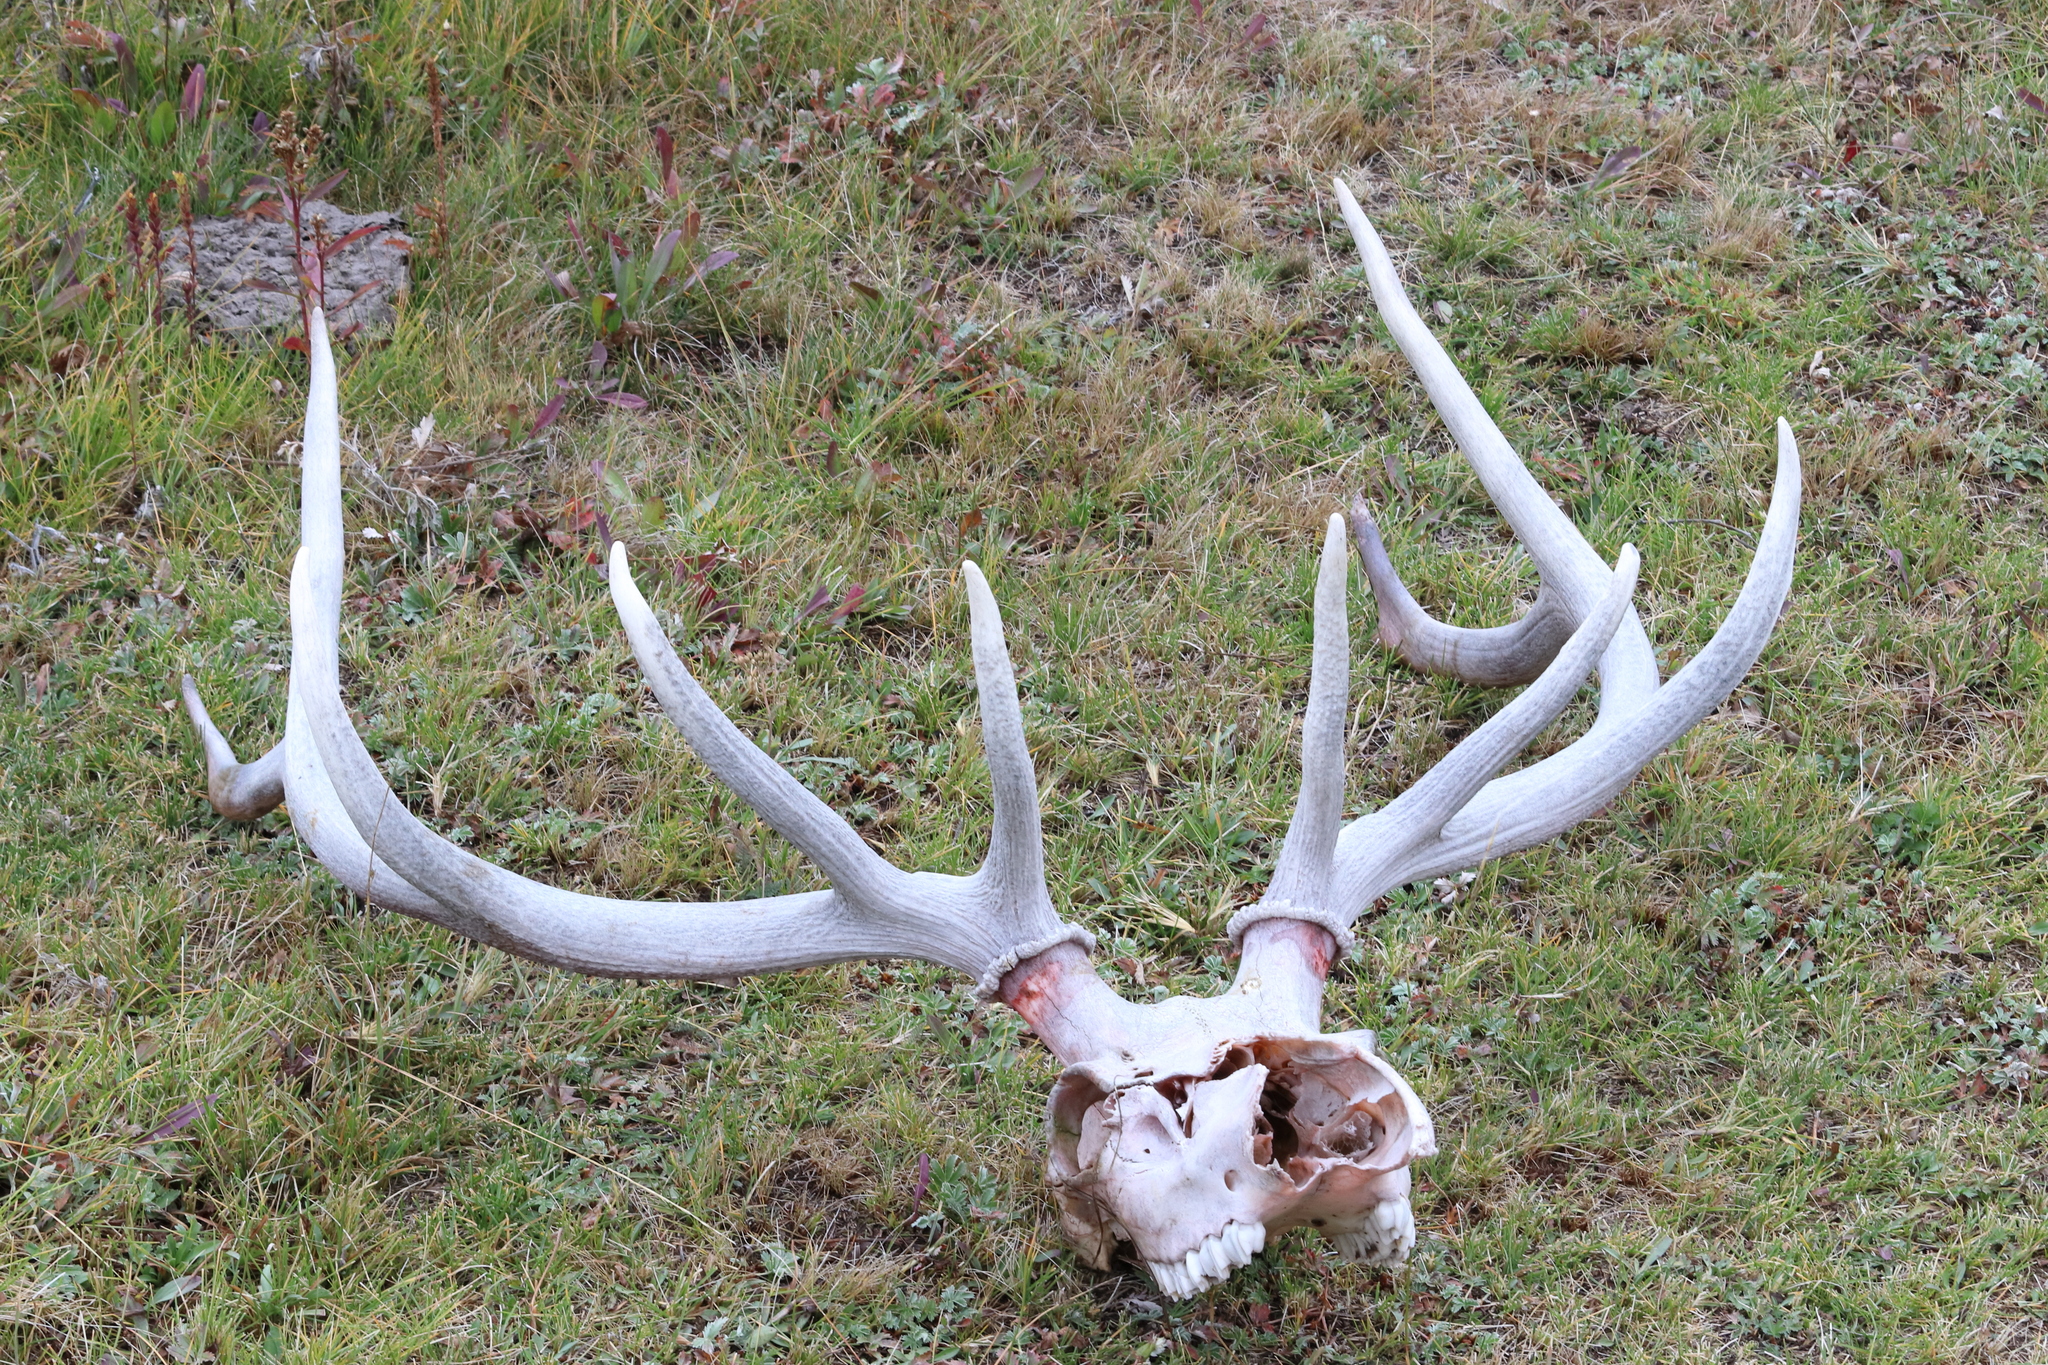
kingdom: Animalia
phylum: Chordata
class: Mammalia
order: Artiodactyla
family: Cervidae
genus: Cervus
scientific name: Cervus elaphus
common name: Red deer
